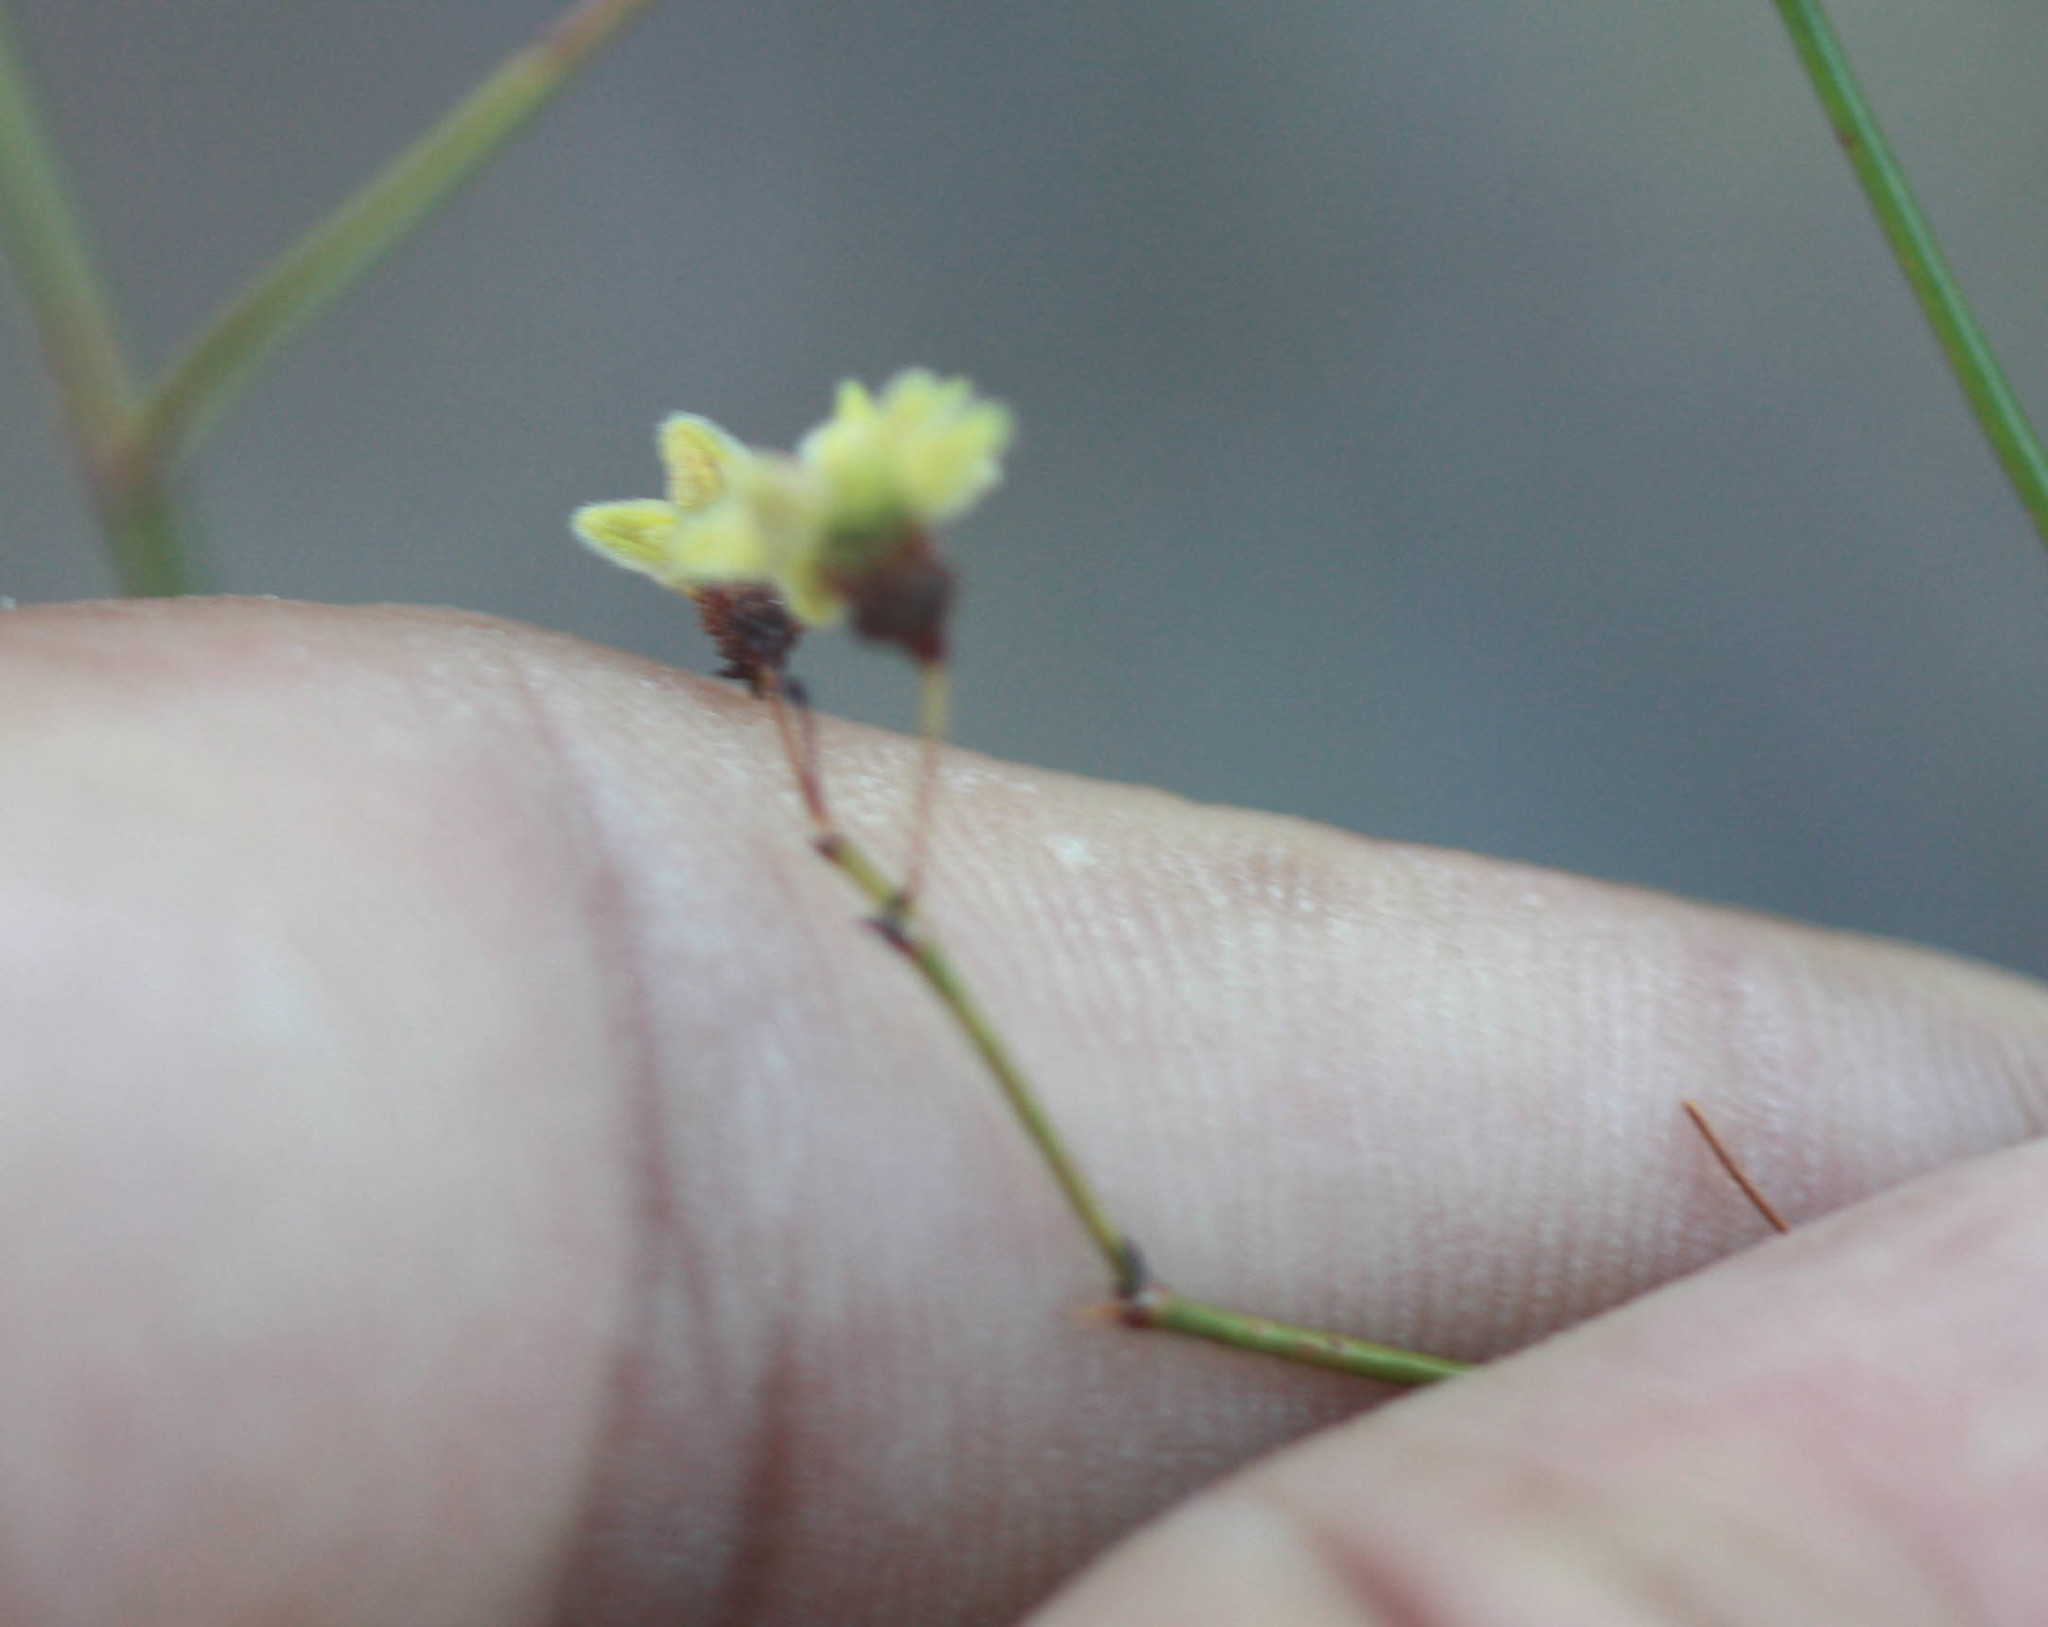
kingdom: Plantae
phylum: Tracheophyta
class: Magnoliopsida
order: Caryophyllales
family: Polygonaceae
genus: Eriogonum
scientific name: Eriogonum inflatum
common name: Desert trumpet
